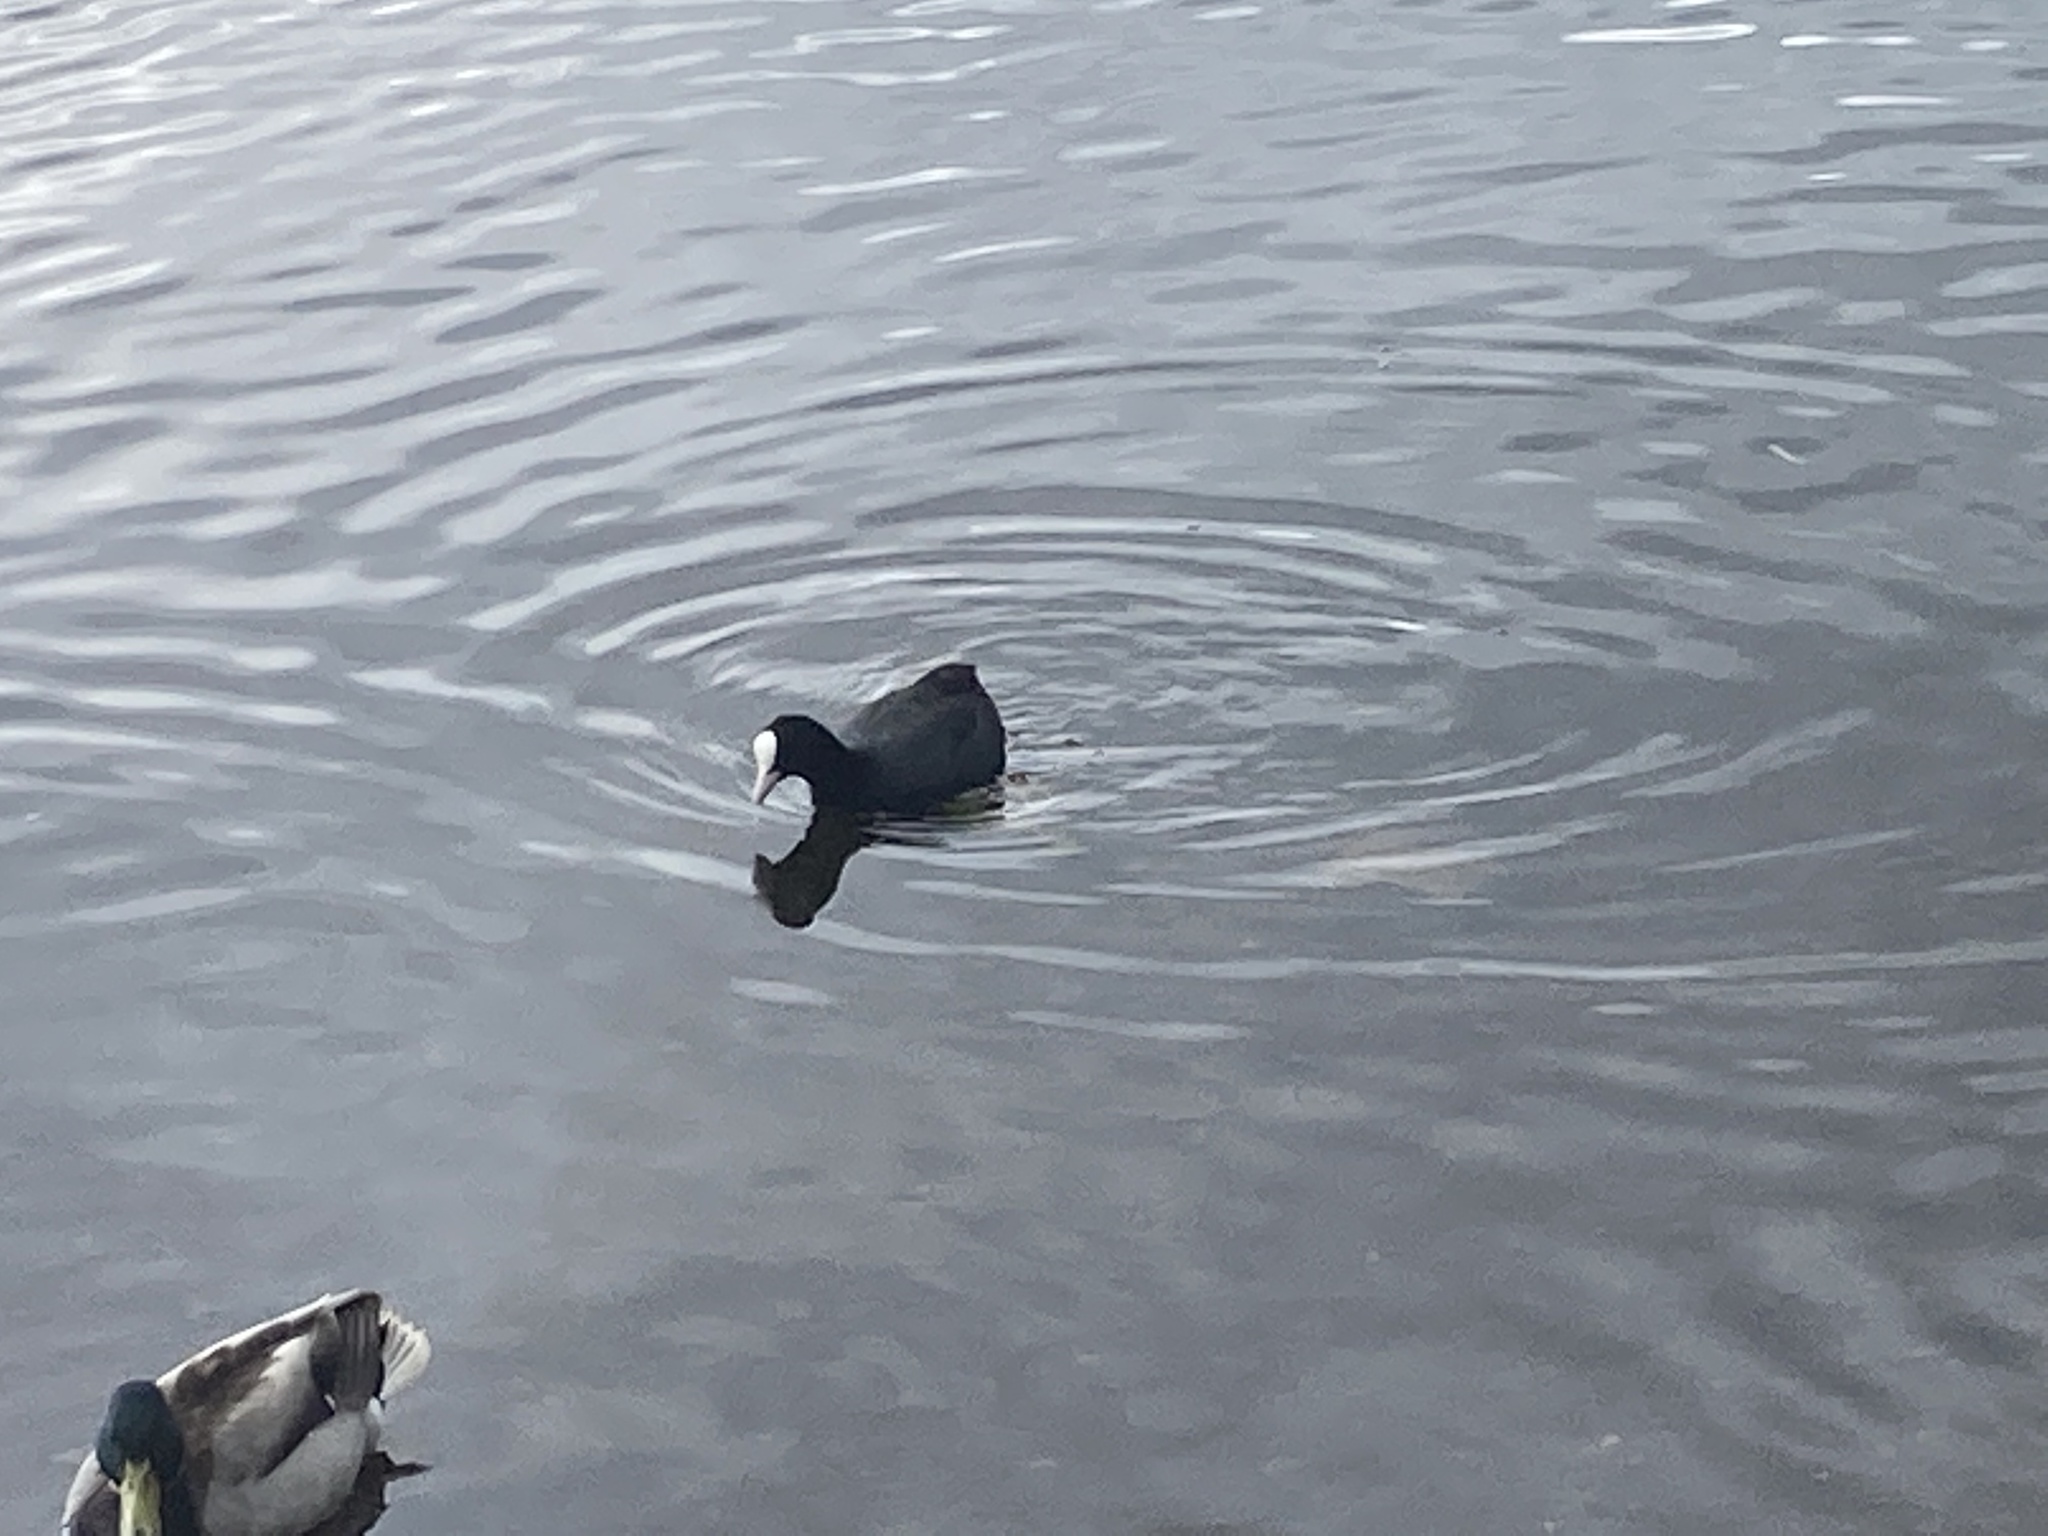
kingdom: Animalia
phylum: Chordata
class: Aves
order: Gruiformes
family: Rallidae
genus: Fulica
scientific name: Fulica atra
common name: Eurasian coot
